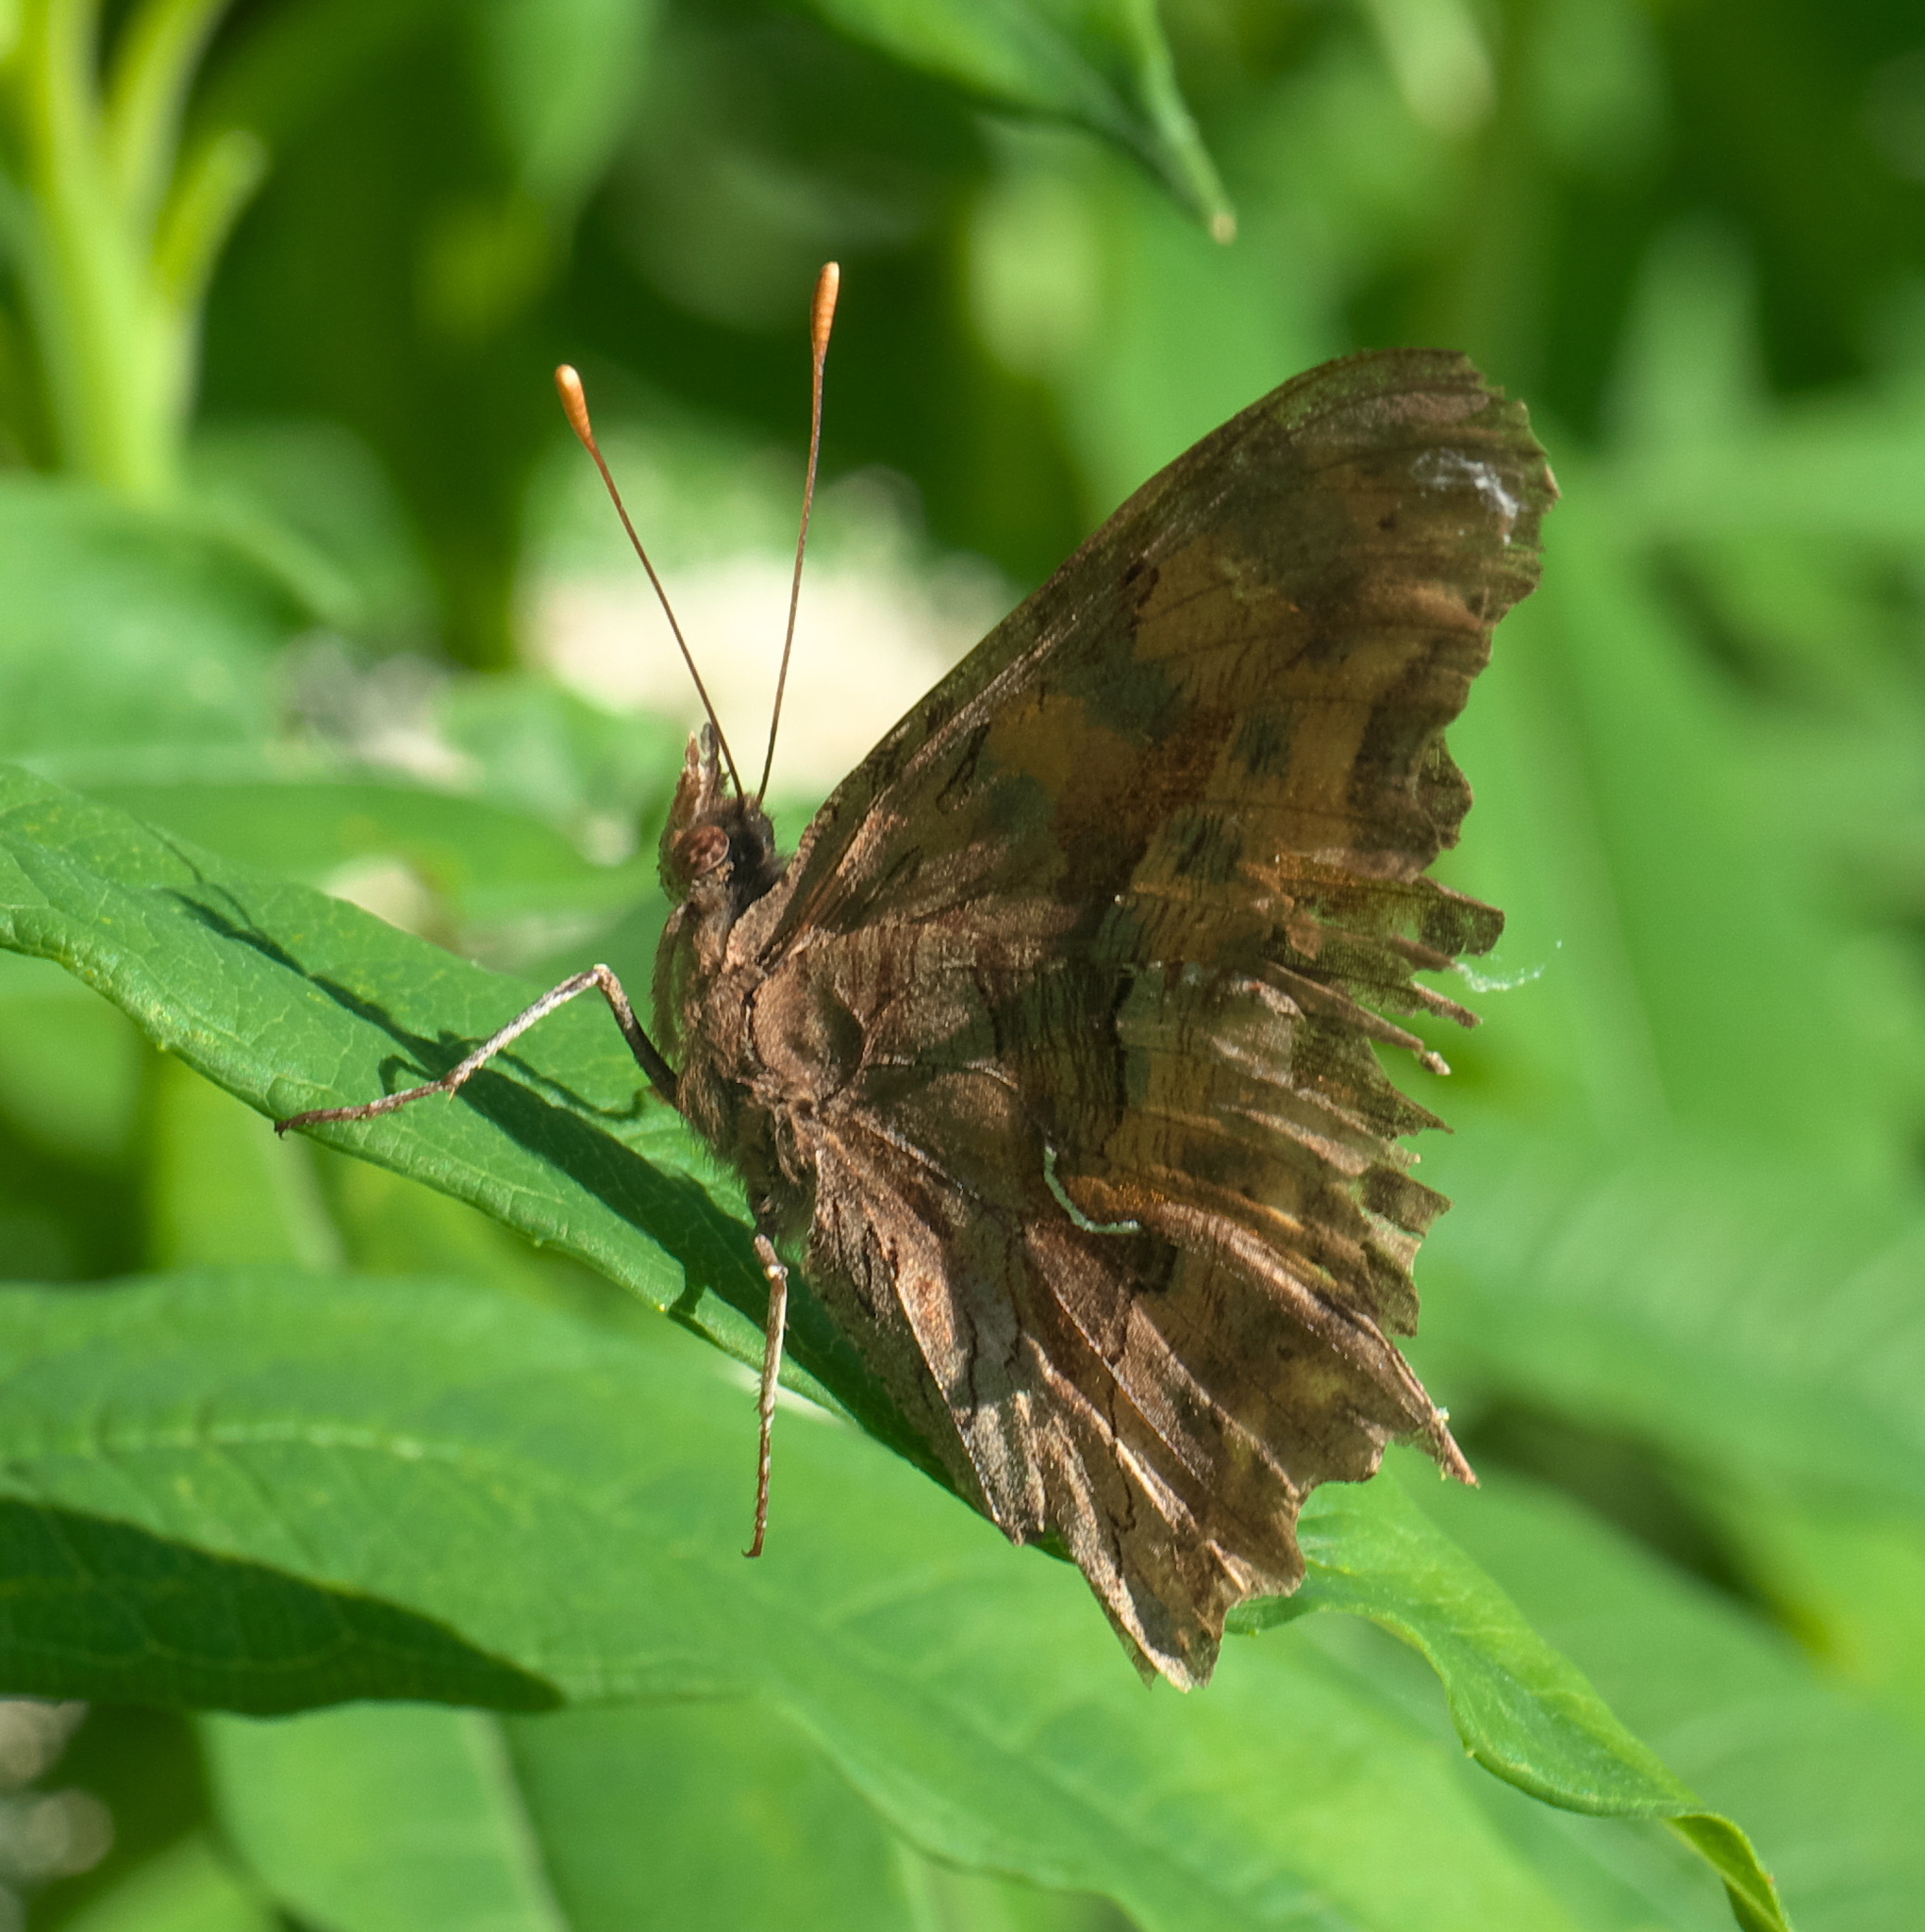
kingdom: Animalia
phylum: Arthropoda
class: Insecta
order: Lepidoptera
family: Nymphalidae
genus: Polygonia
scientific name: Polygonia satyrus
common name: Satyr angle wing
